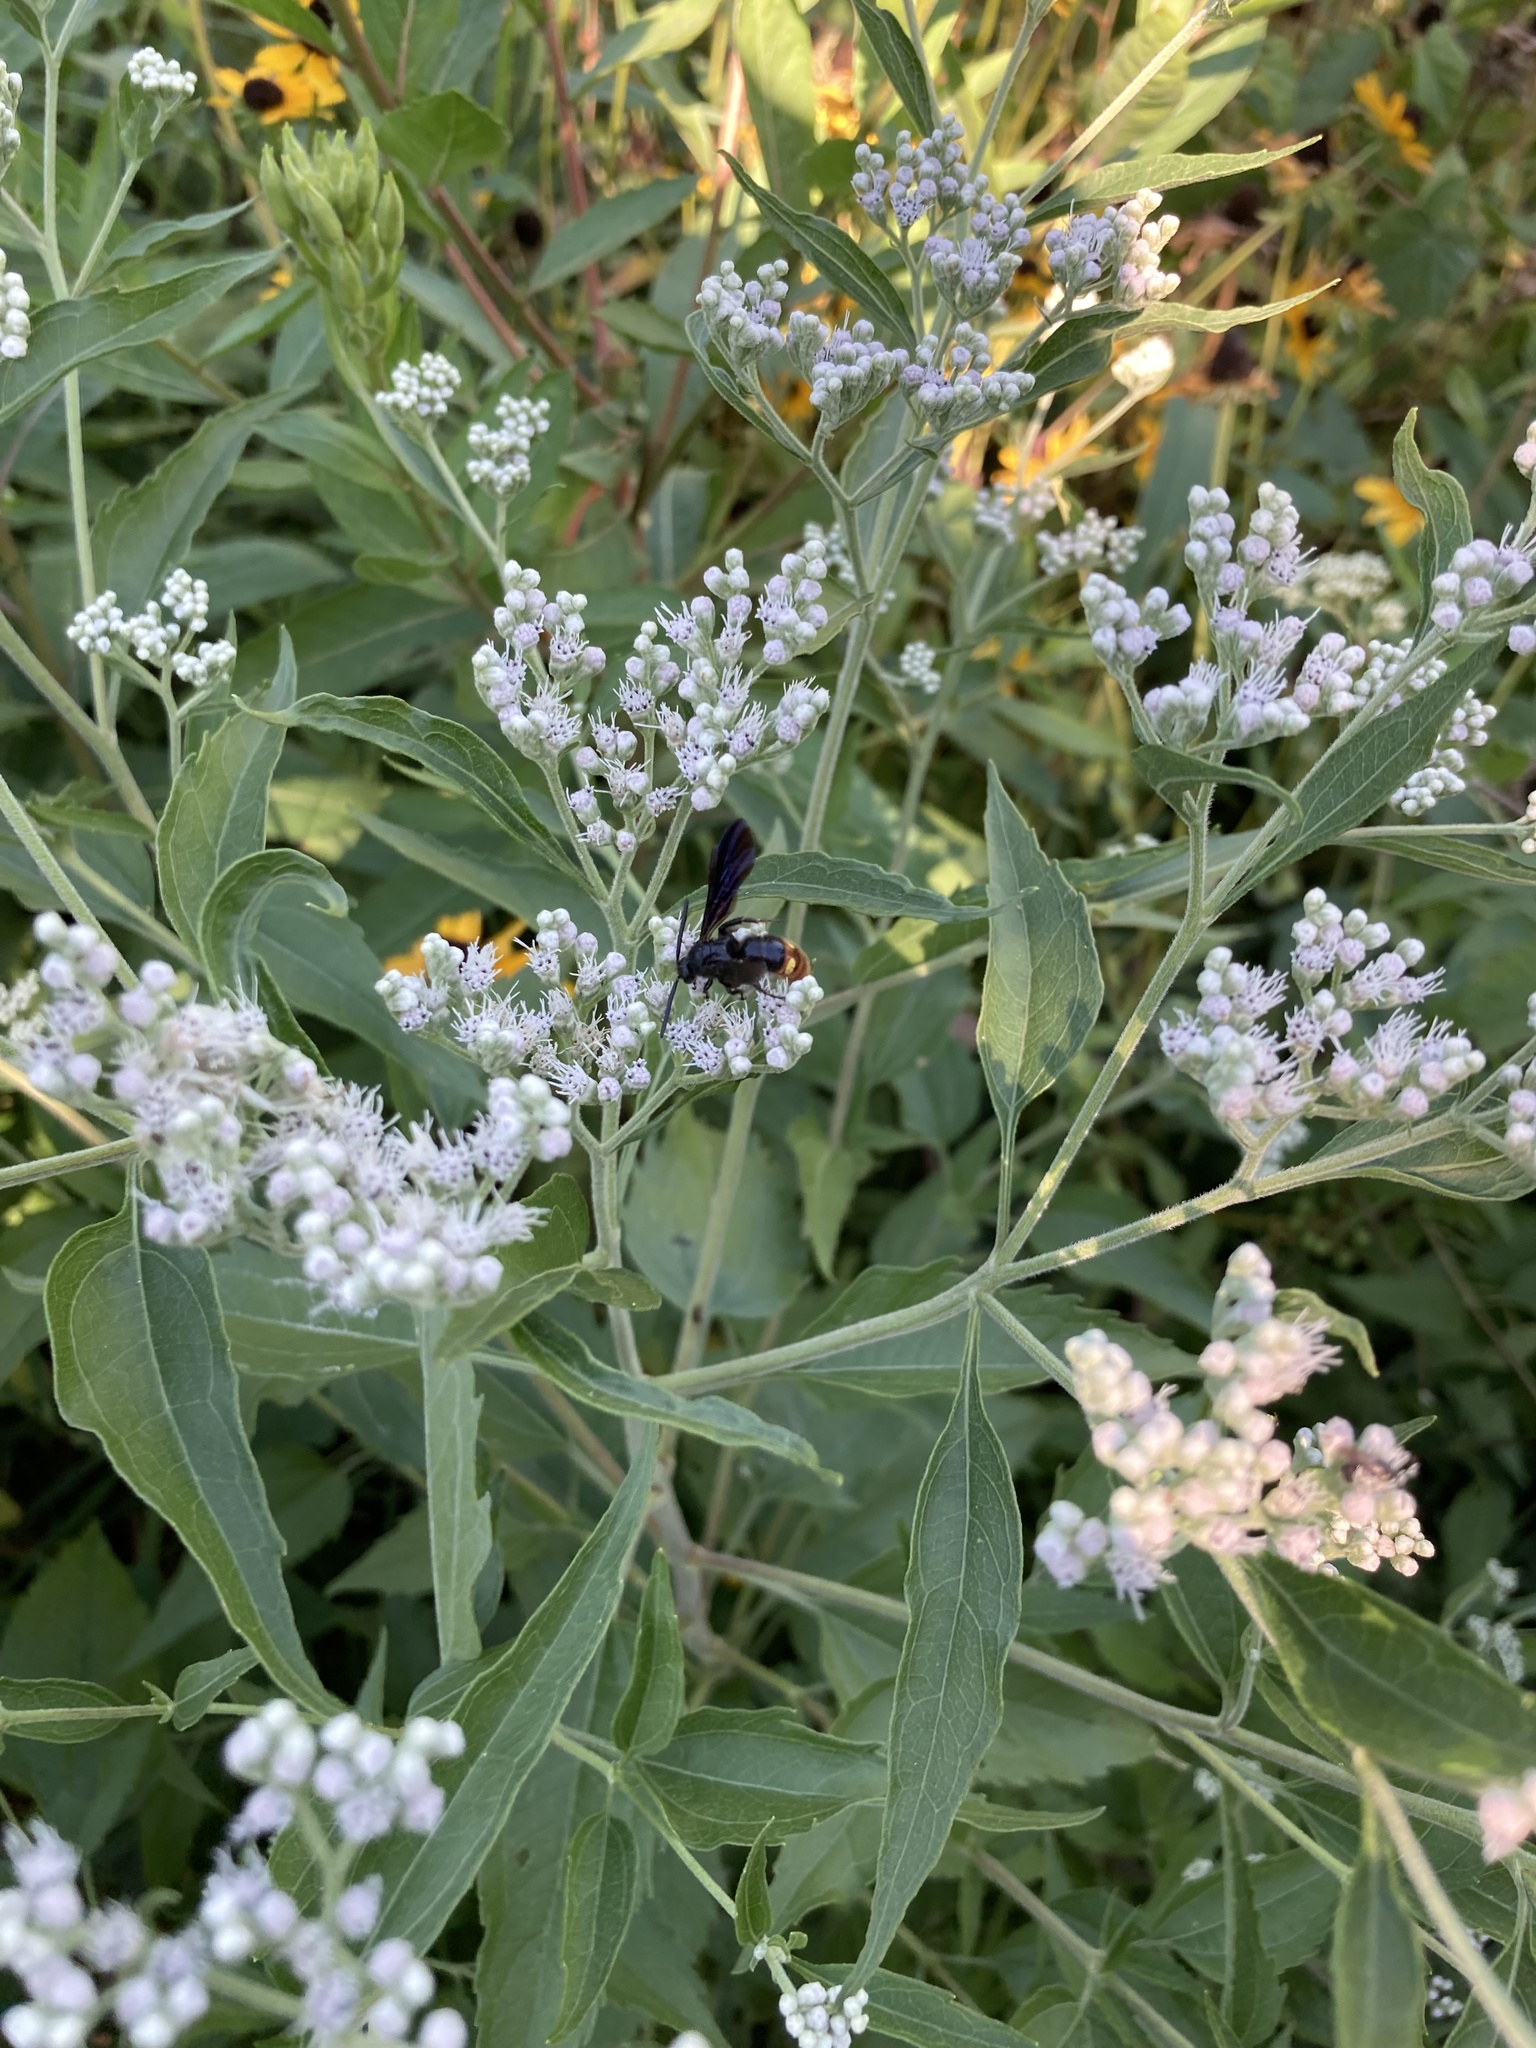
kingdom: Animalia
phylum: Arthropoda
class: Insecta
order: Hymenoptera
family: Scoliidae
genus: Scolia
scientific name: Scolia dubia
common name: Blue-winged scoliid wasp
